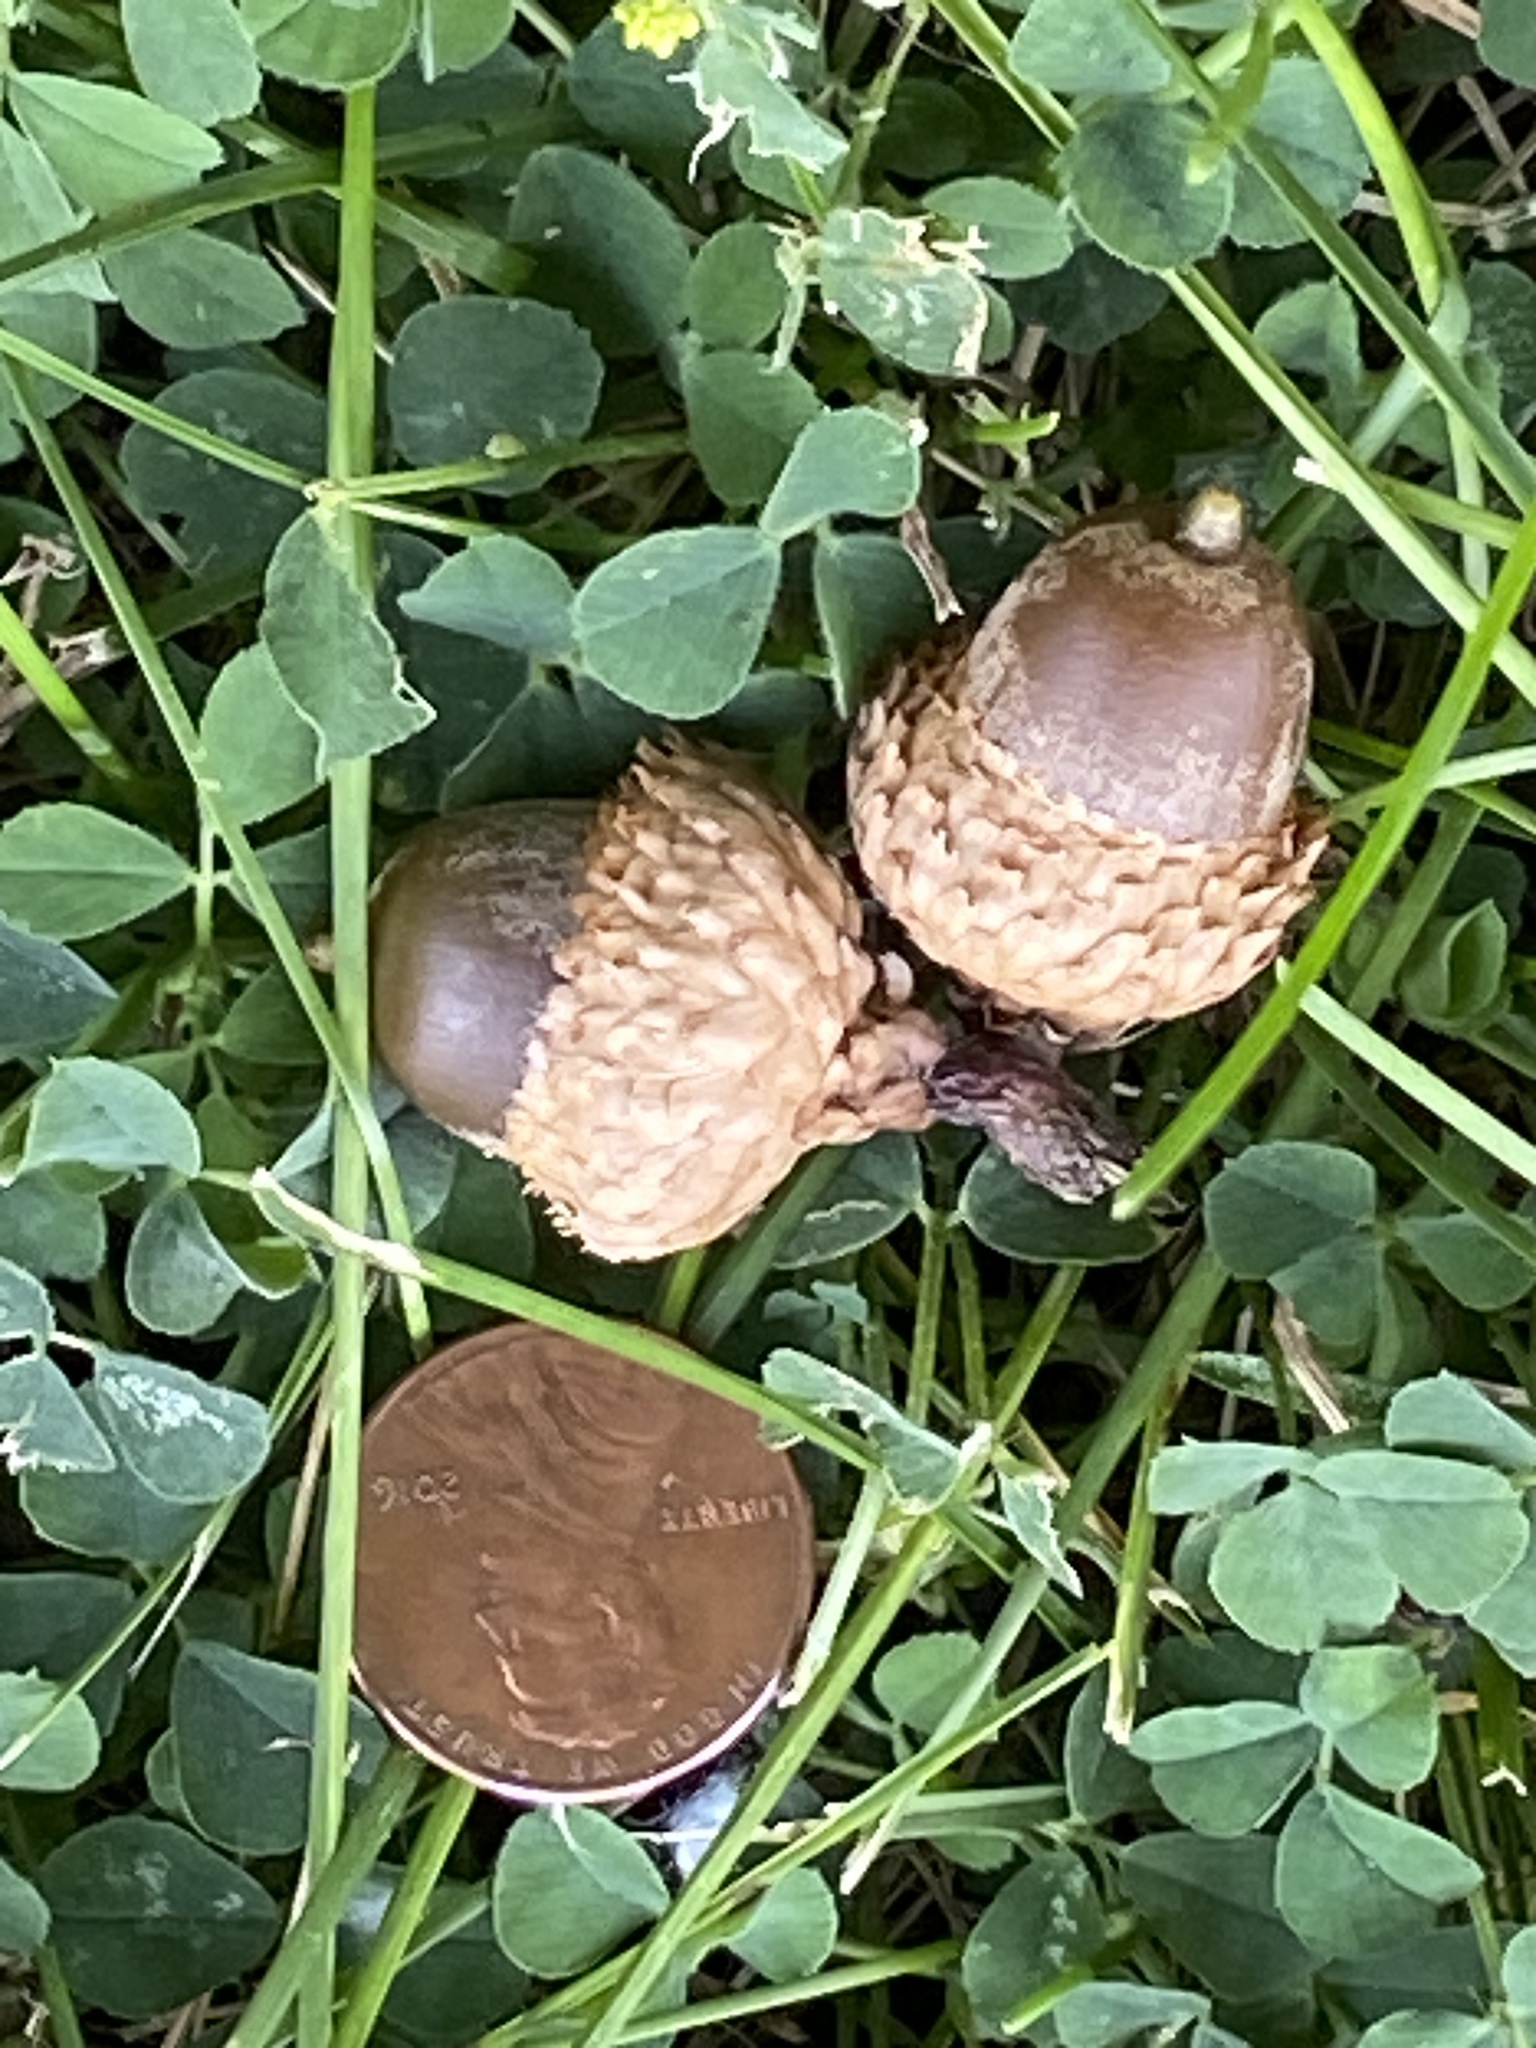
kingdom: Plantae
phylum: Tracheophyta
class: Magnoliopsida
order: Fagales
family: Fagaceae
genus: Quercus
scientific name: Quercus velutina
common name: Black oak
